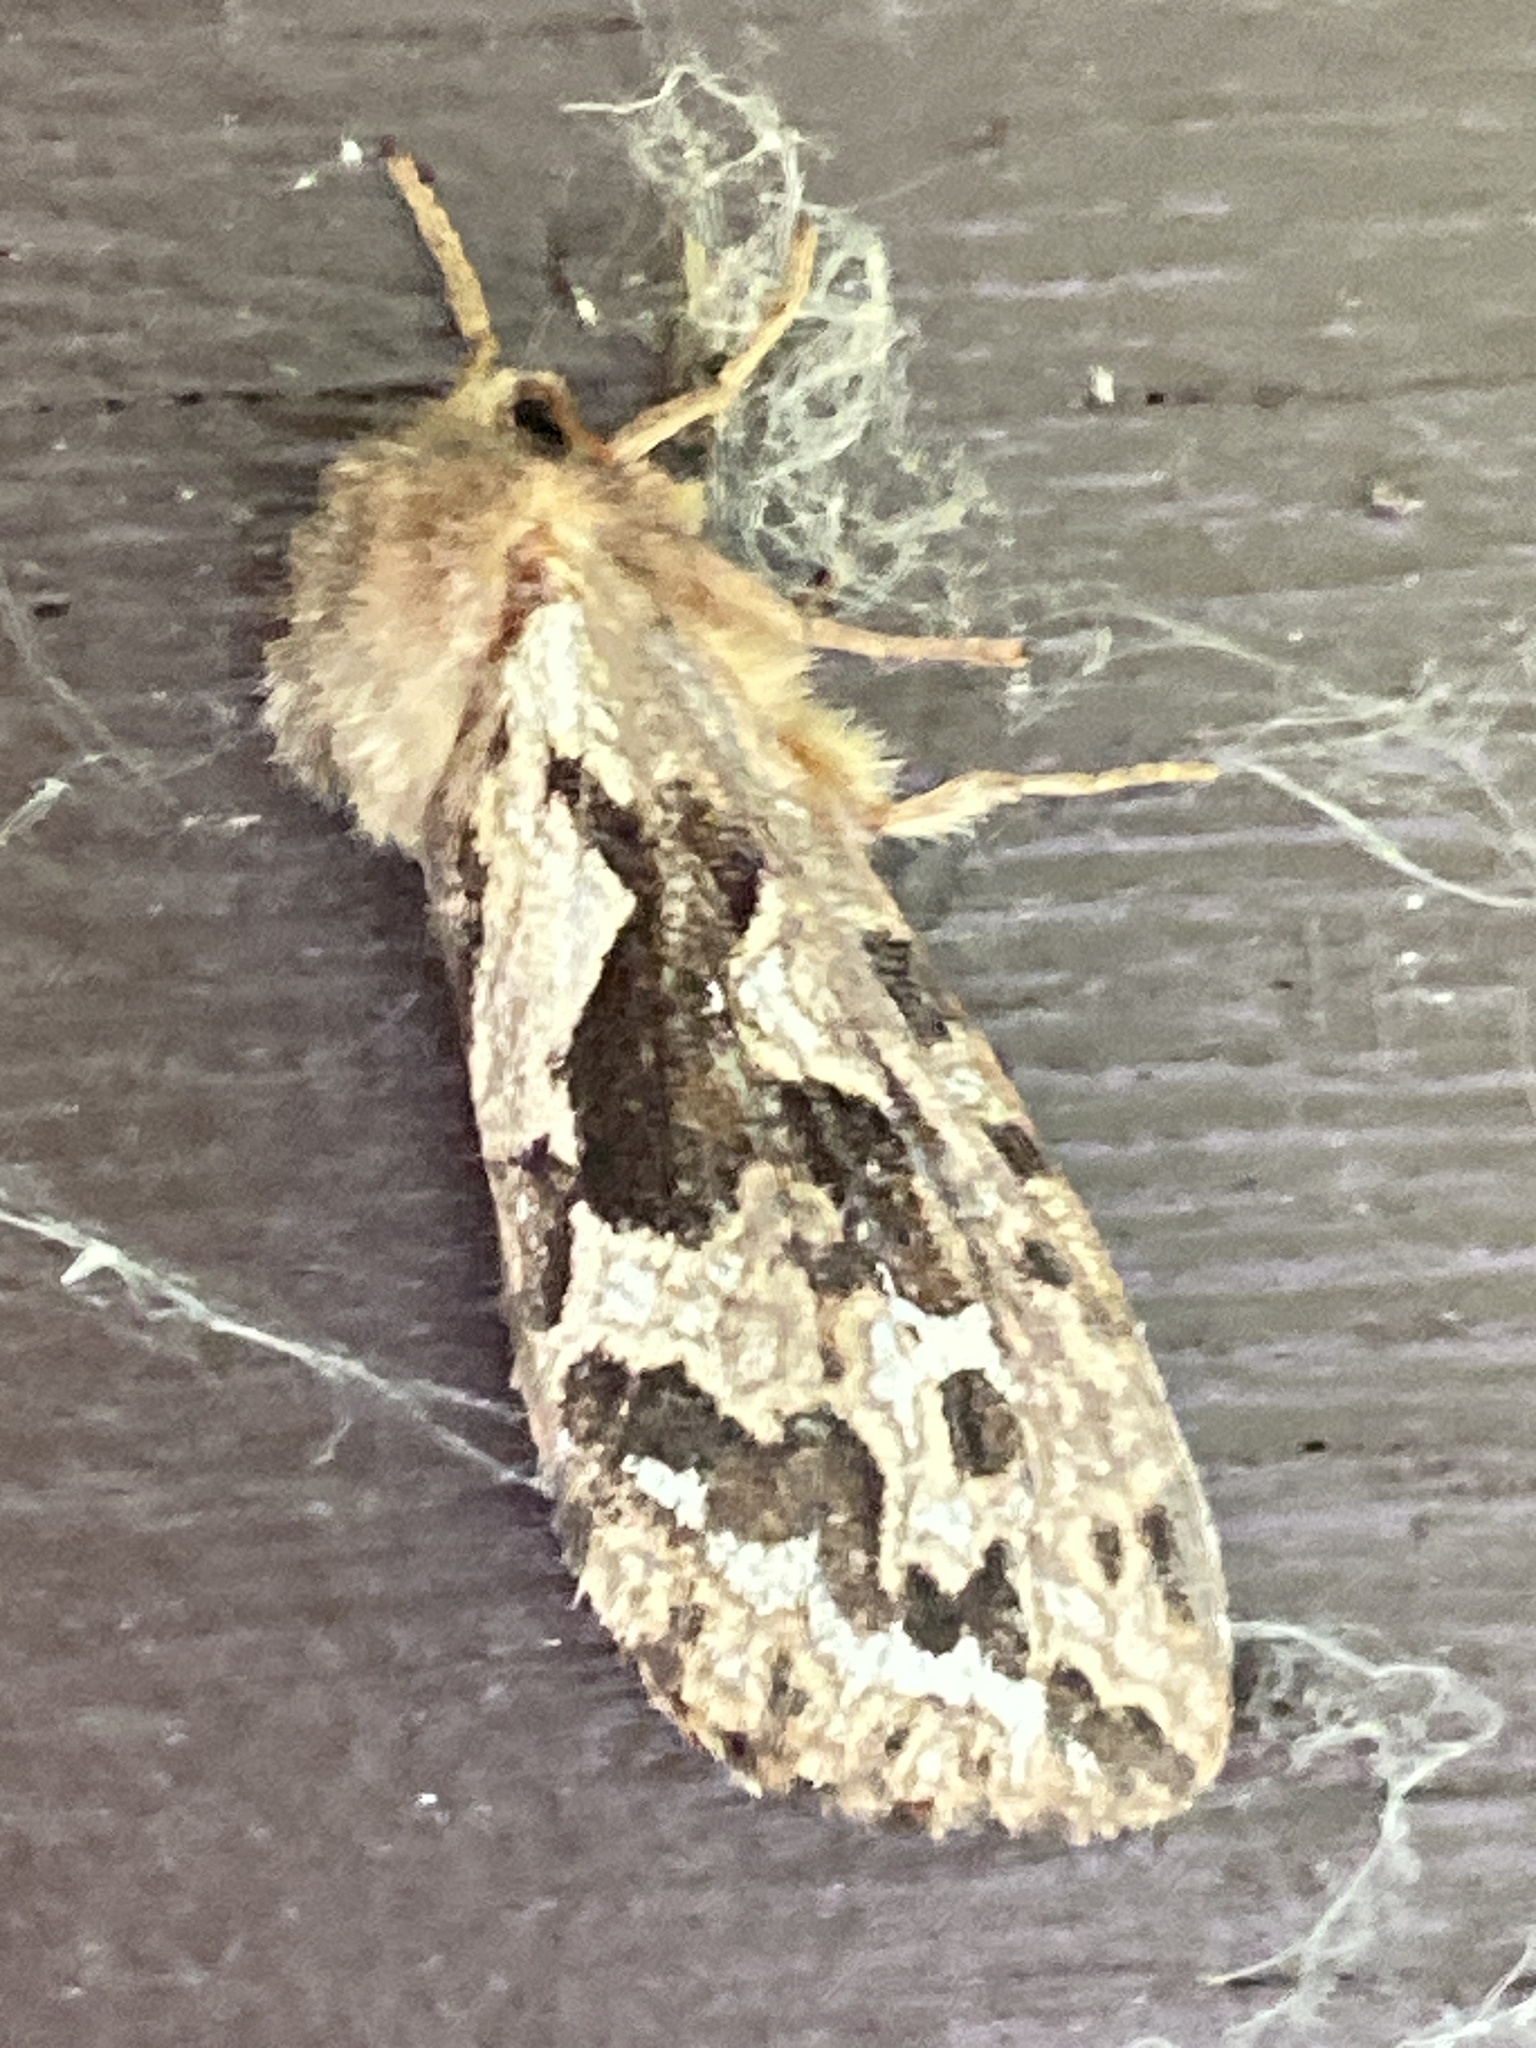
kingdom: Animalia
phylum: Arthropoda
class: Insecta
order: Lepidoptera
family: Hepialidae
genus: Korscheltellus
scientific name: Korscheltellus fusconebulosus
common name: Map-winged swift
